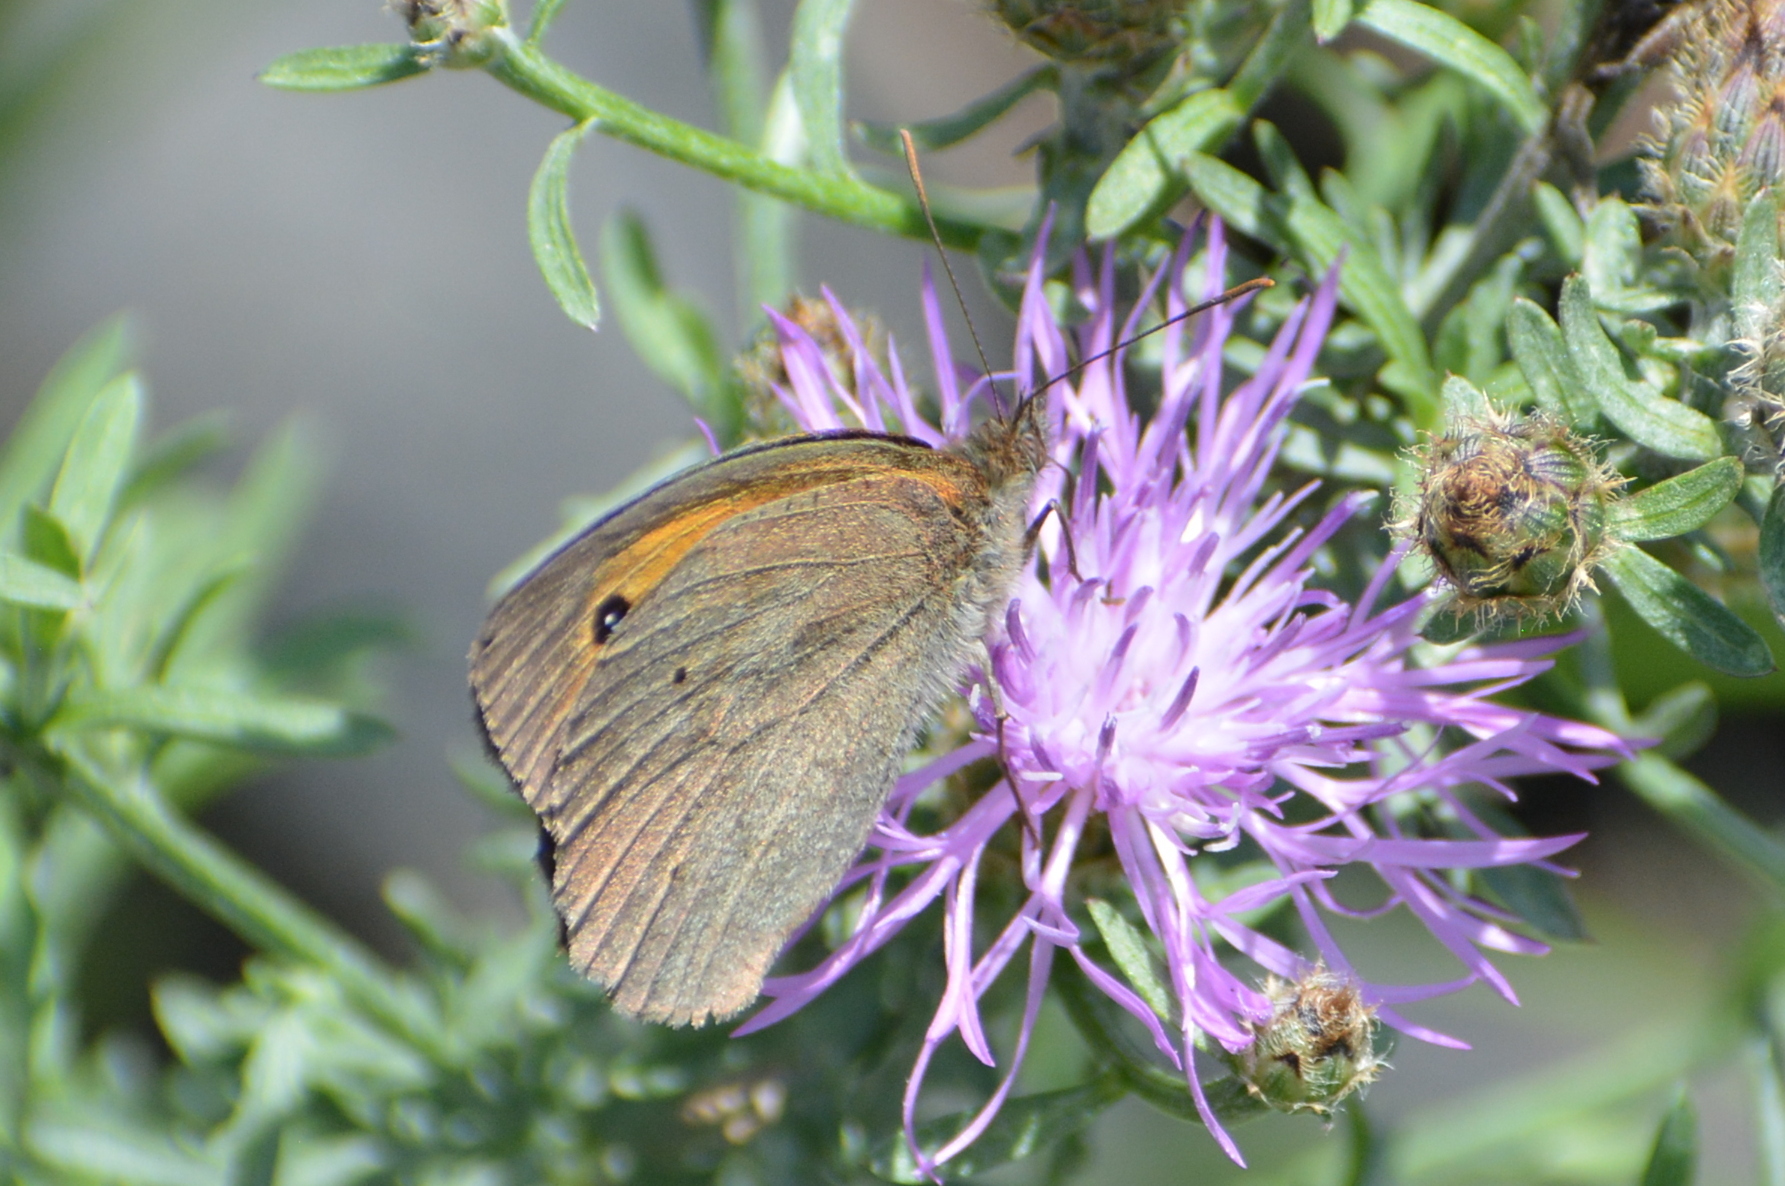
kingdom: Animalia
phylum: Arthropoda
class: Insecta
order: Lepidoptera
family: Nymphalidae
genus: Maniola
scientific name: Maniola jurtina
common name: Meadow brown
